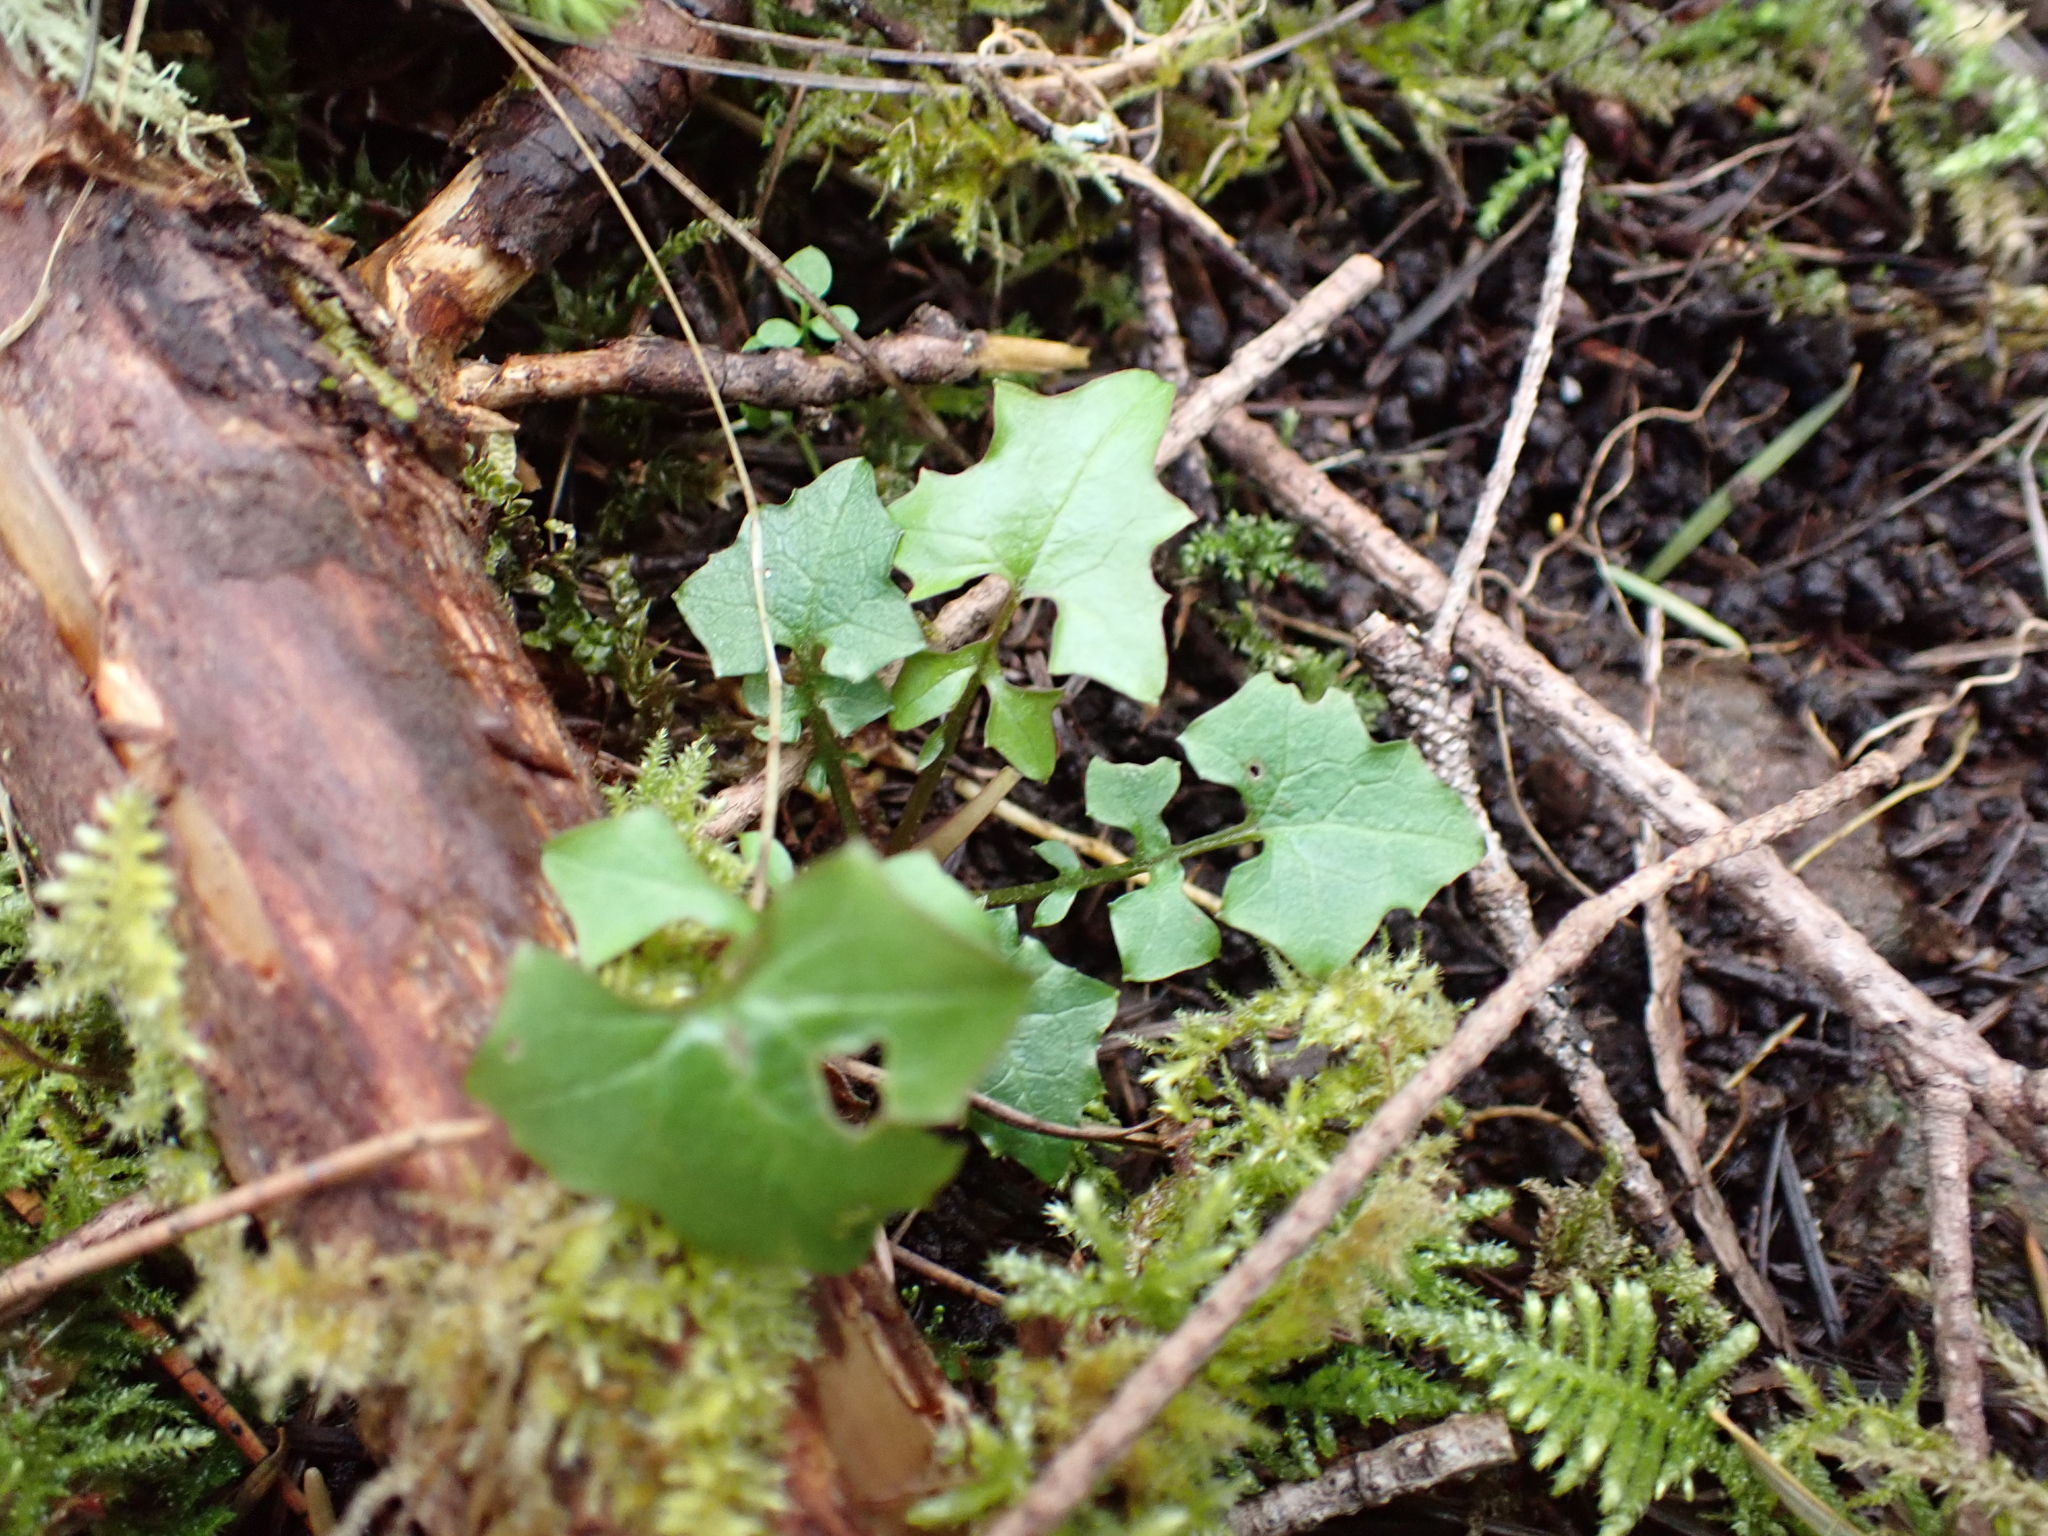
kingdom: Plantae
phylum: Tracheophyta
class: Magnoliopsida
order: Asterales
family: Asteraceae
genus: Mycelis
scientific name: Mycelis muralis
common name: Wall lettuce
